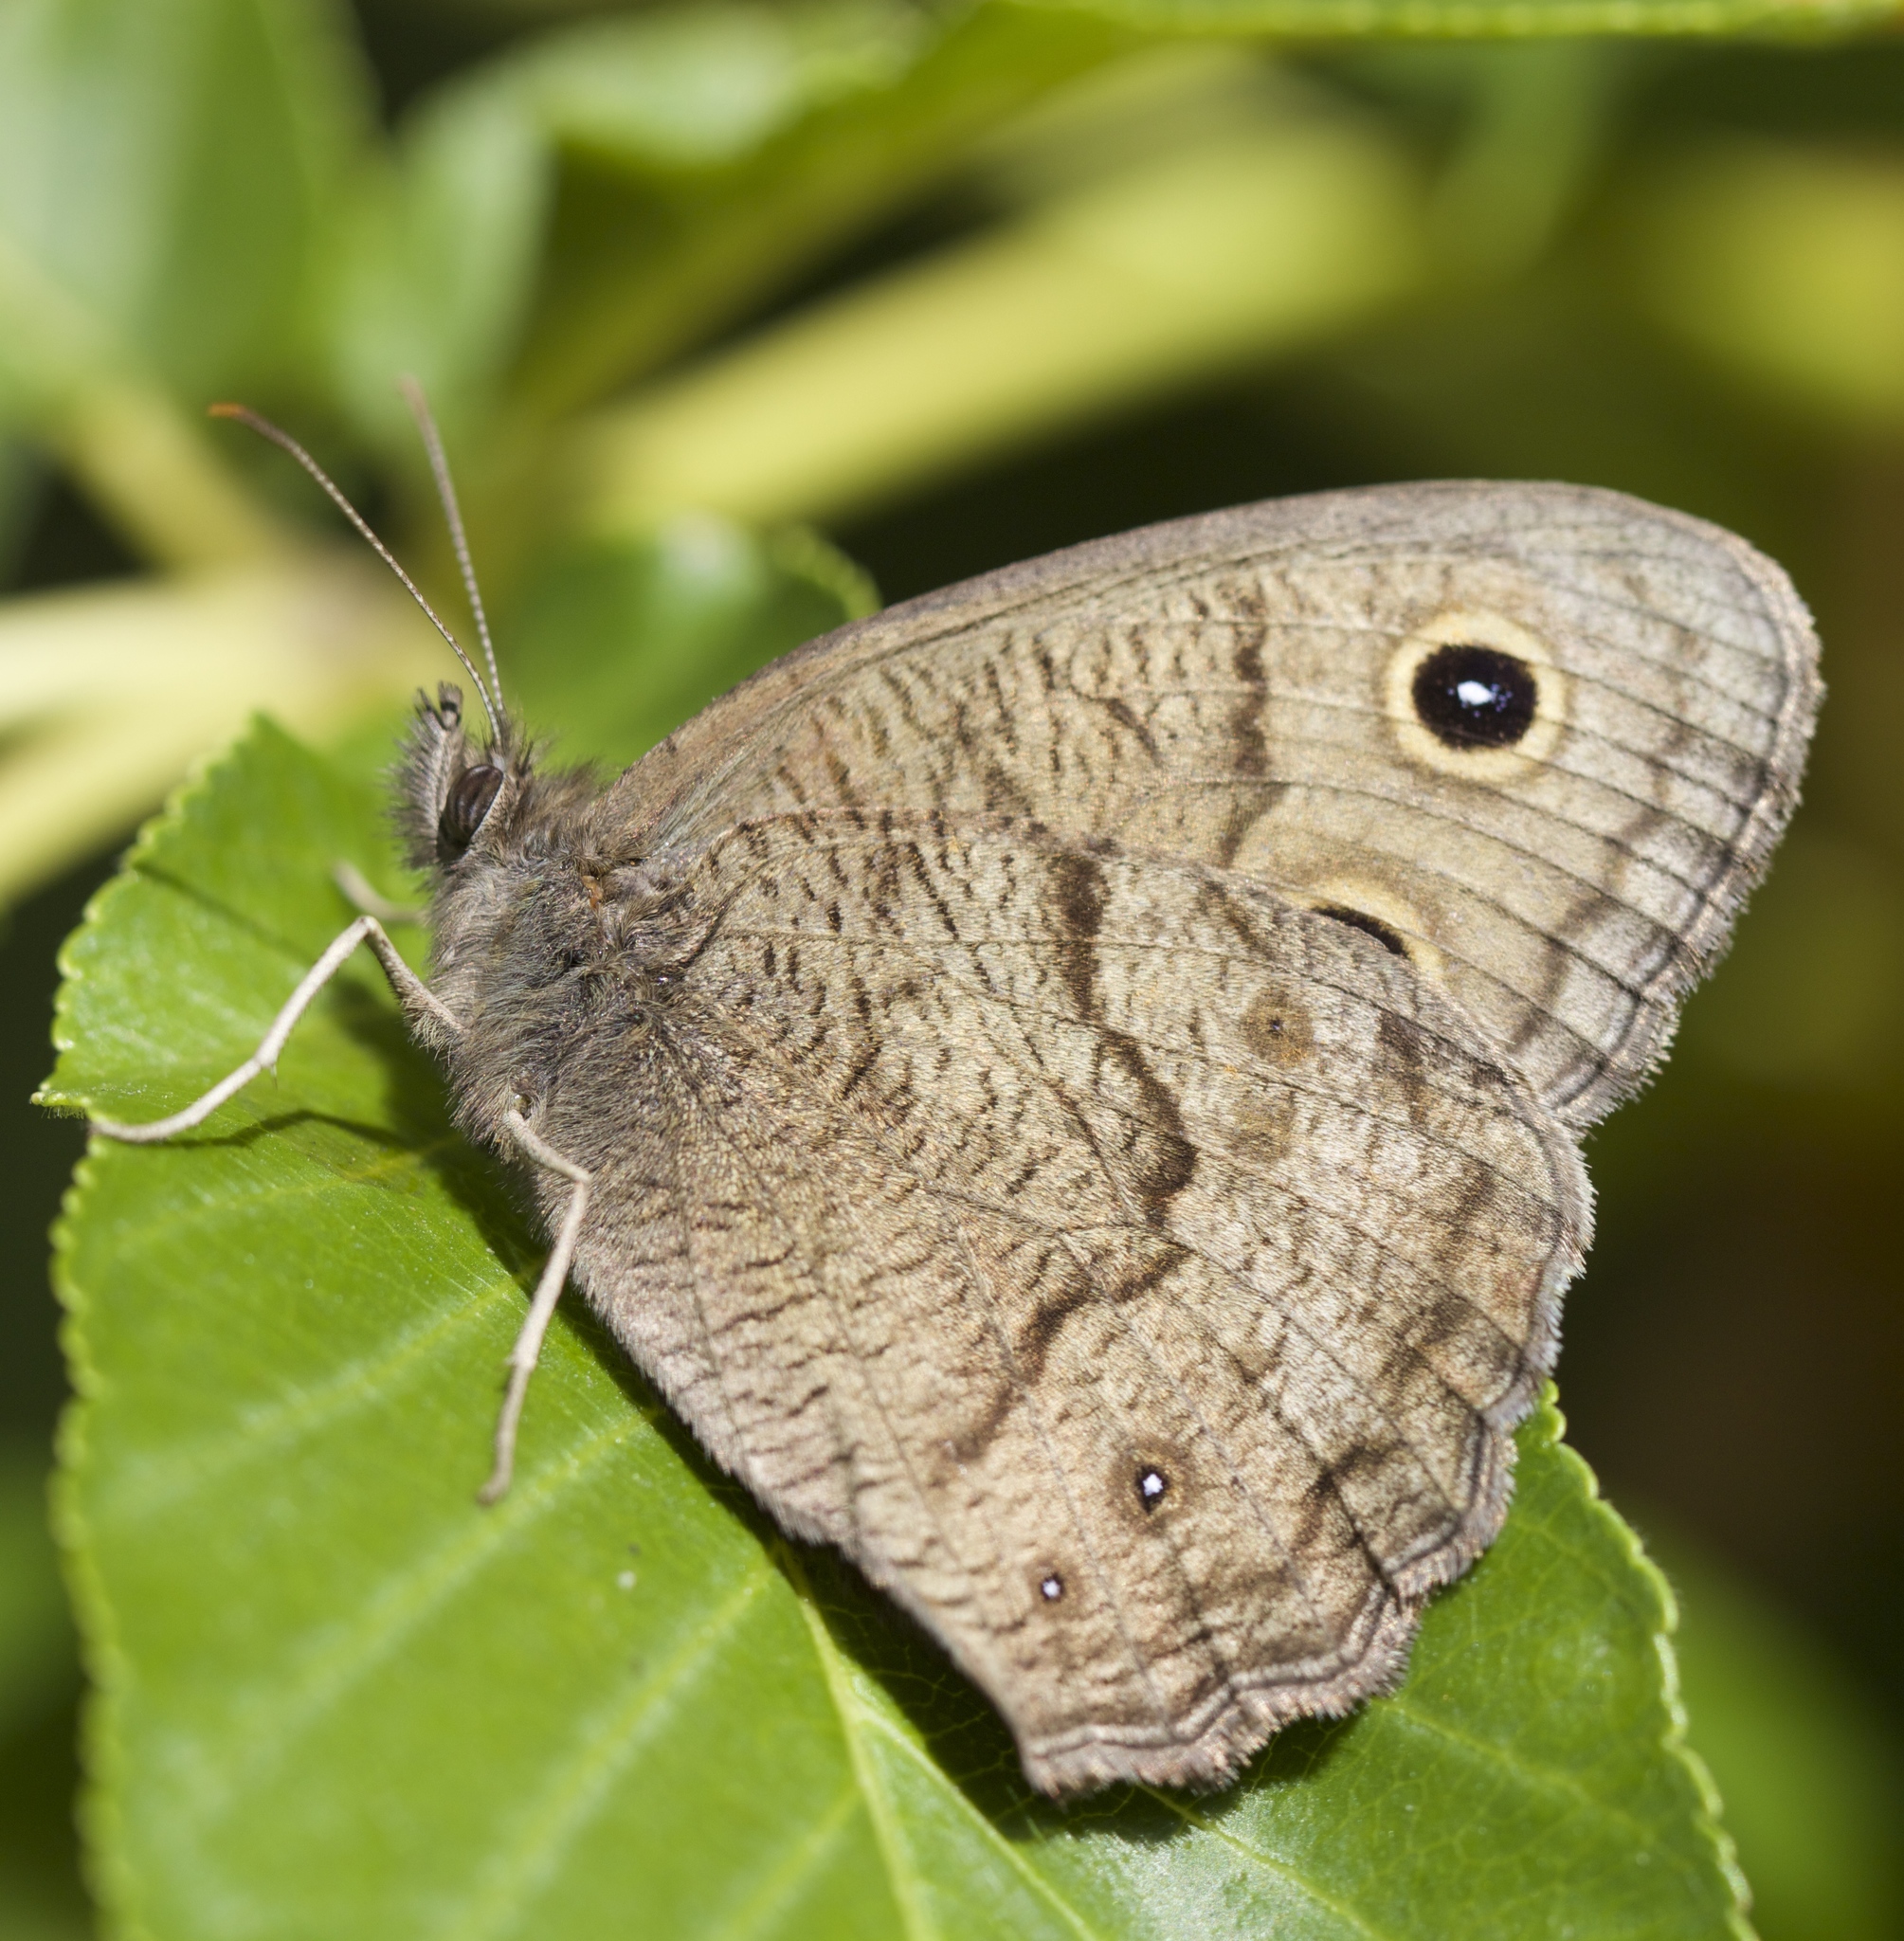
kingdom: Animalia
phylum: Arthropoda
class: Insecta
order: Lepidoptera
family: Nymphalidae
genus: Cercyonis
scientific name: Cercyonis pegala
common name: Common wood-nymph
